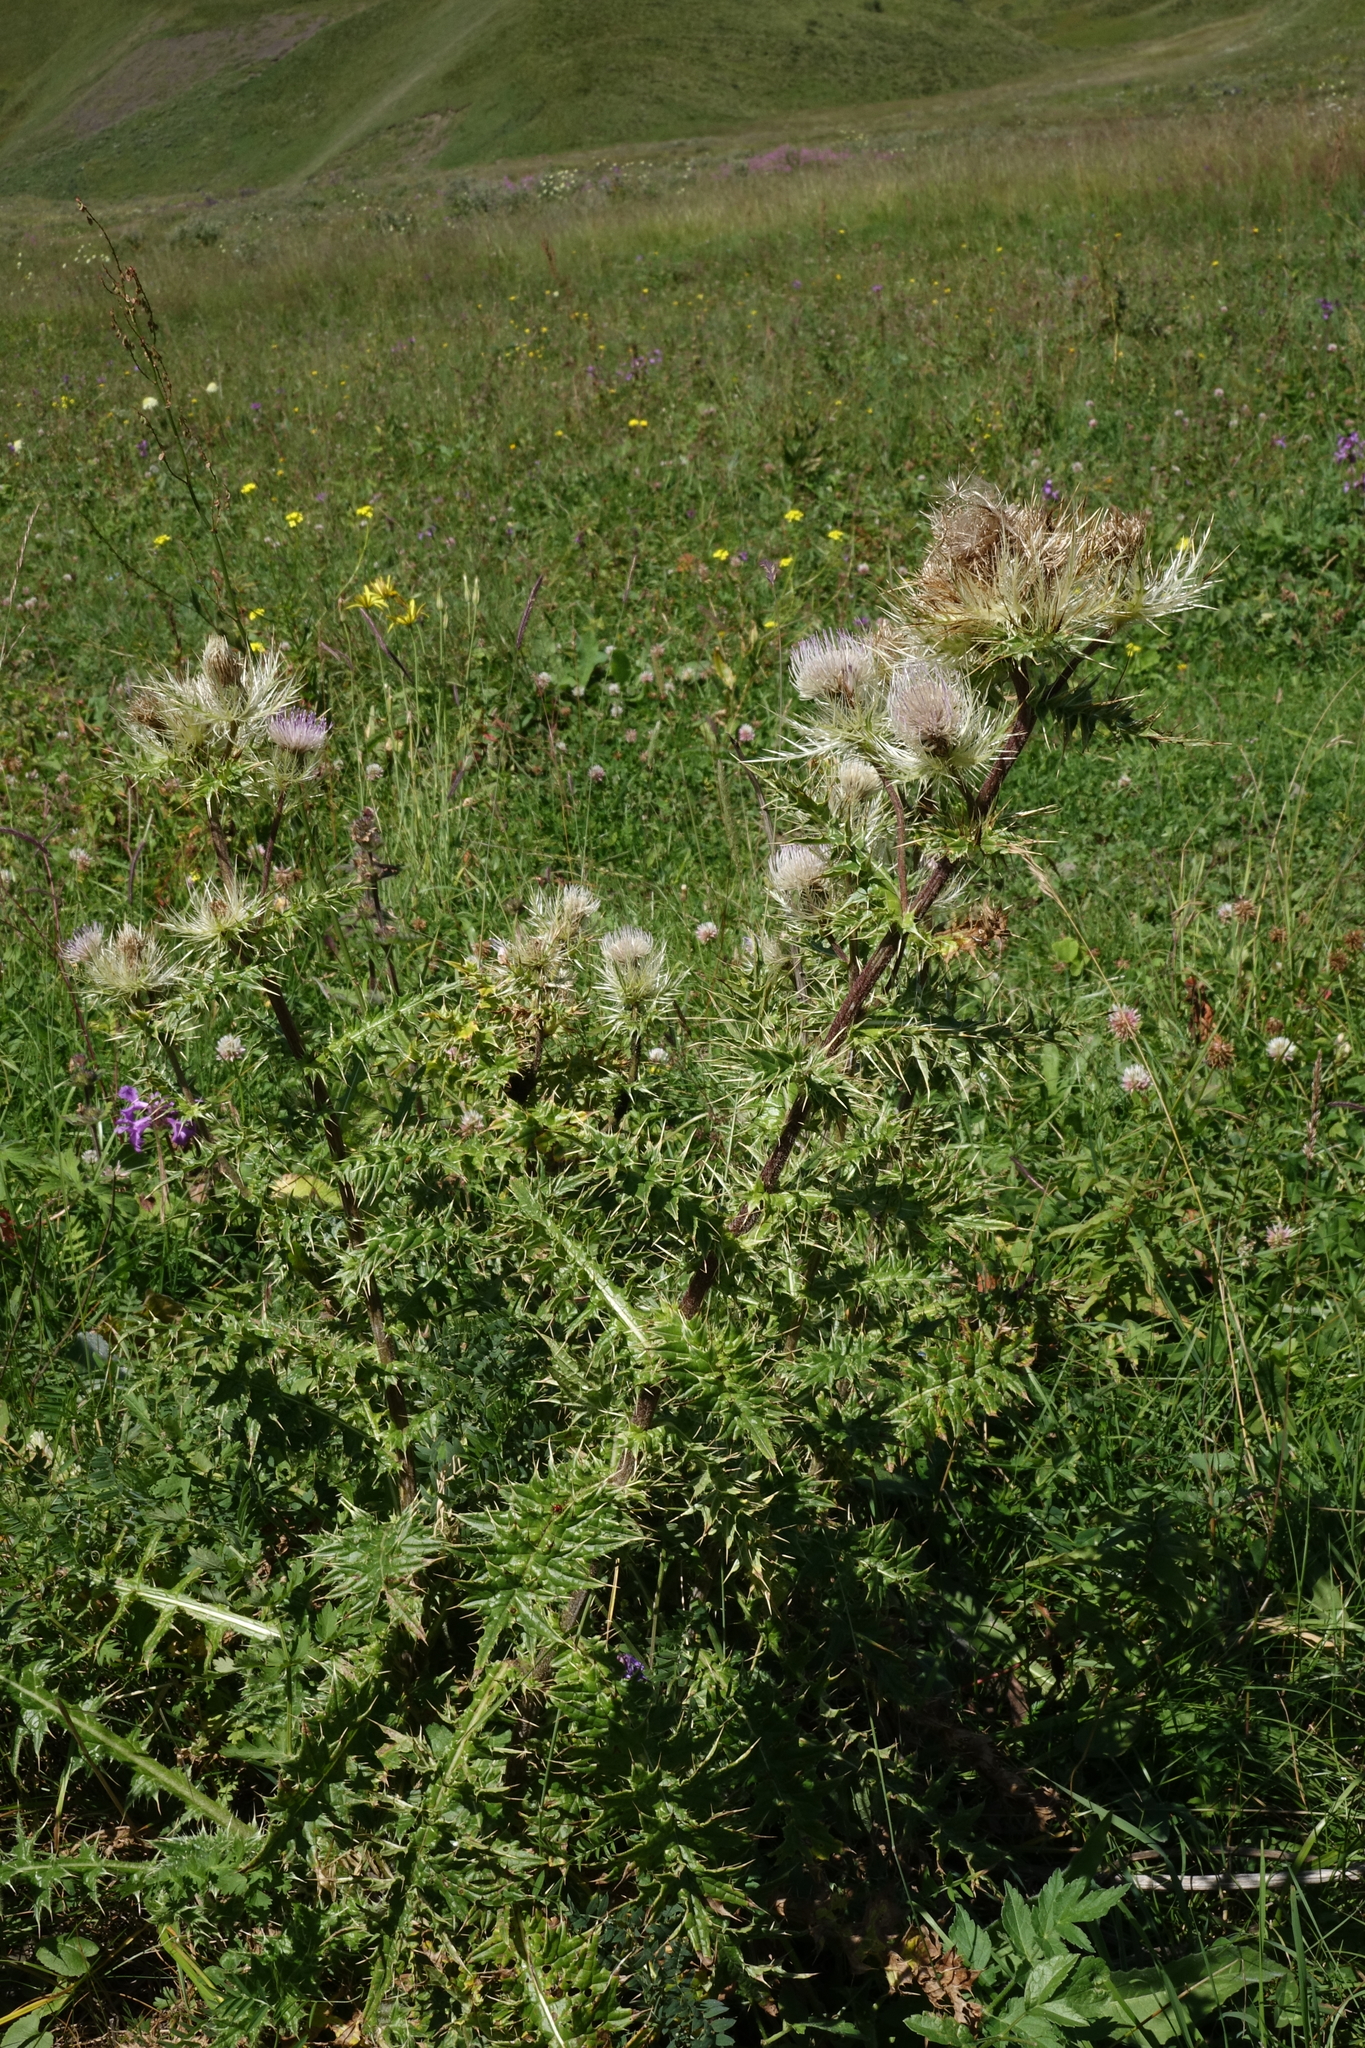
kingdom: Plantae
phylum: Tracheophyta
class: Magnoliopsida
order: Asterales
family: Asteraceae
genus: Cirsium
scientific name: Cirsium obvallatum
